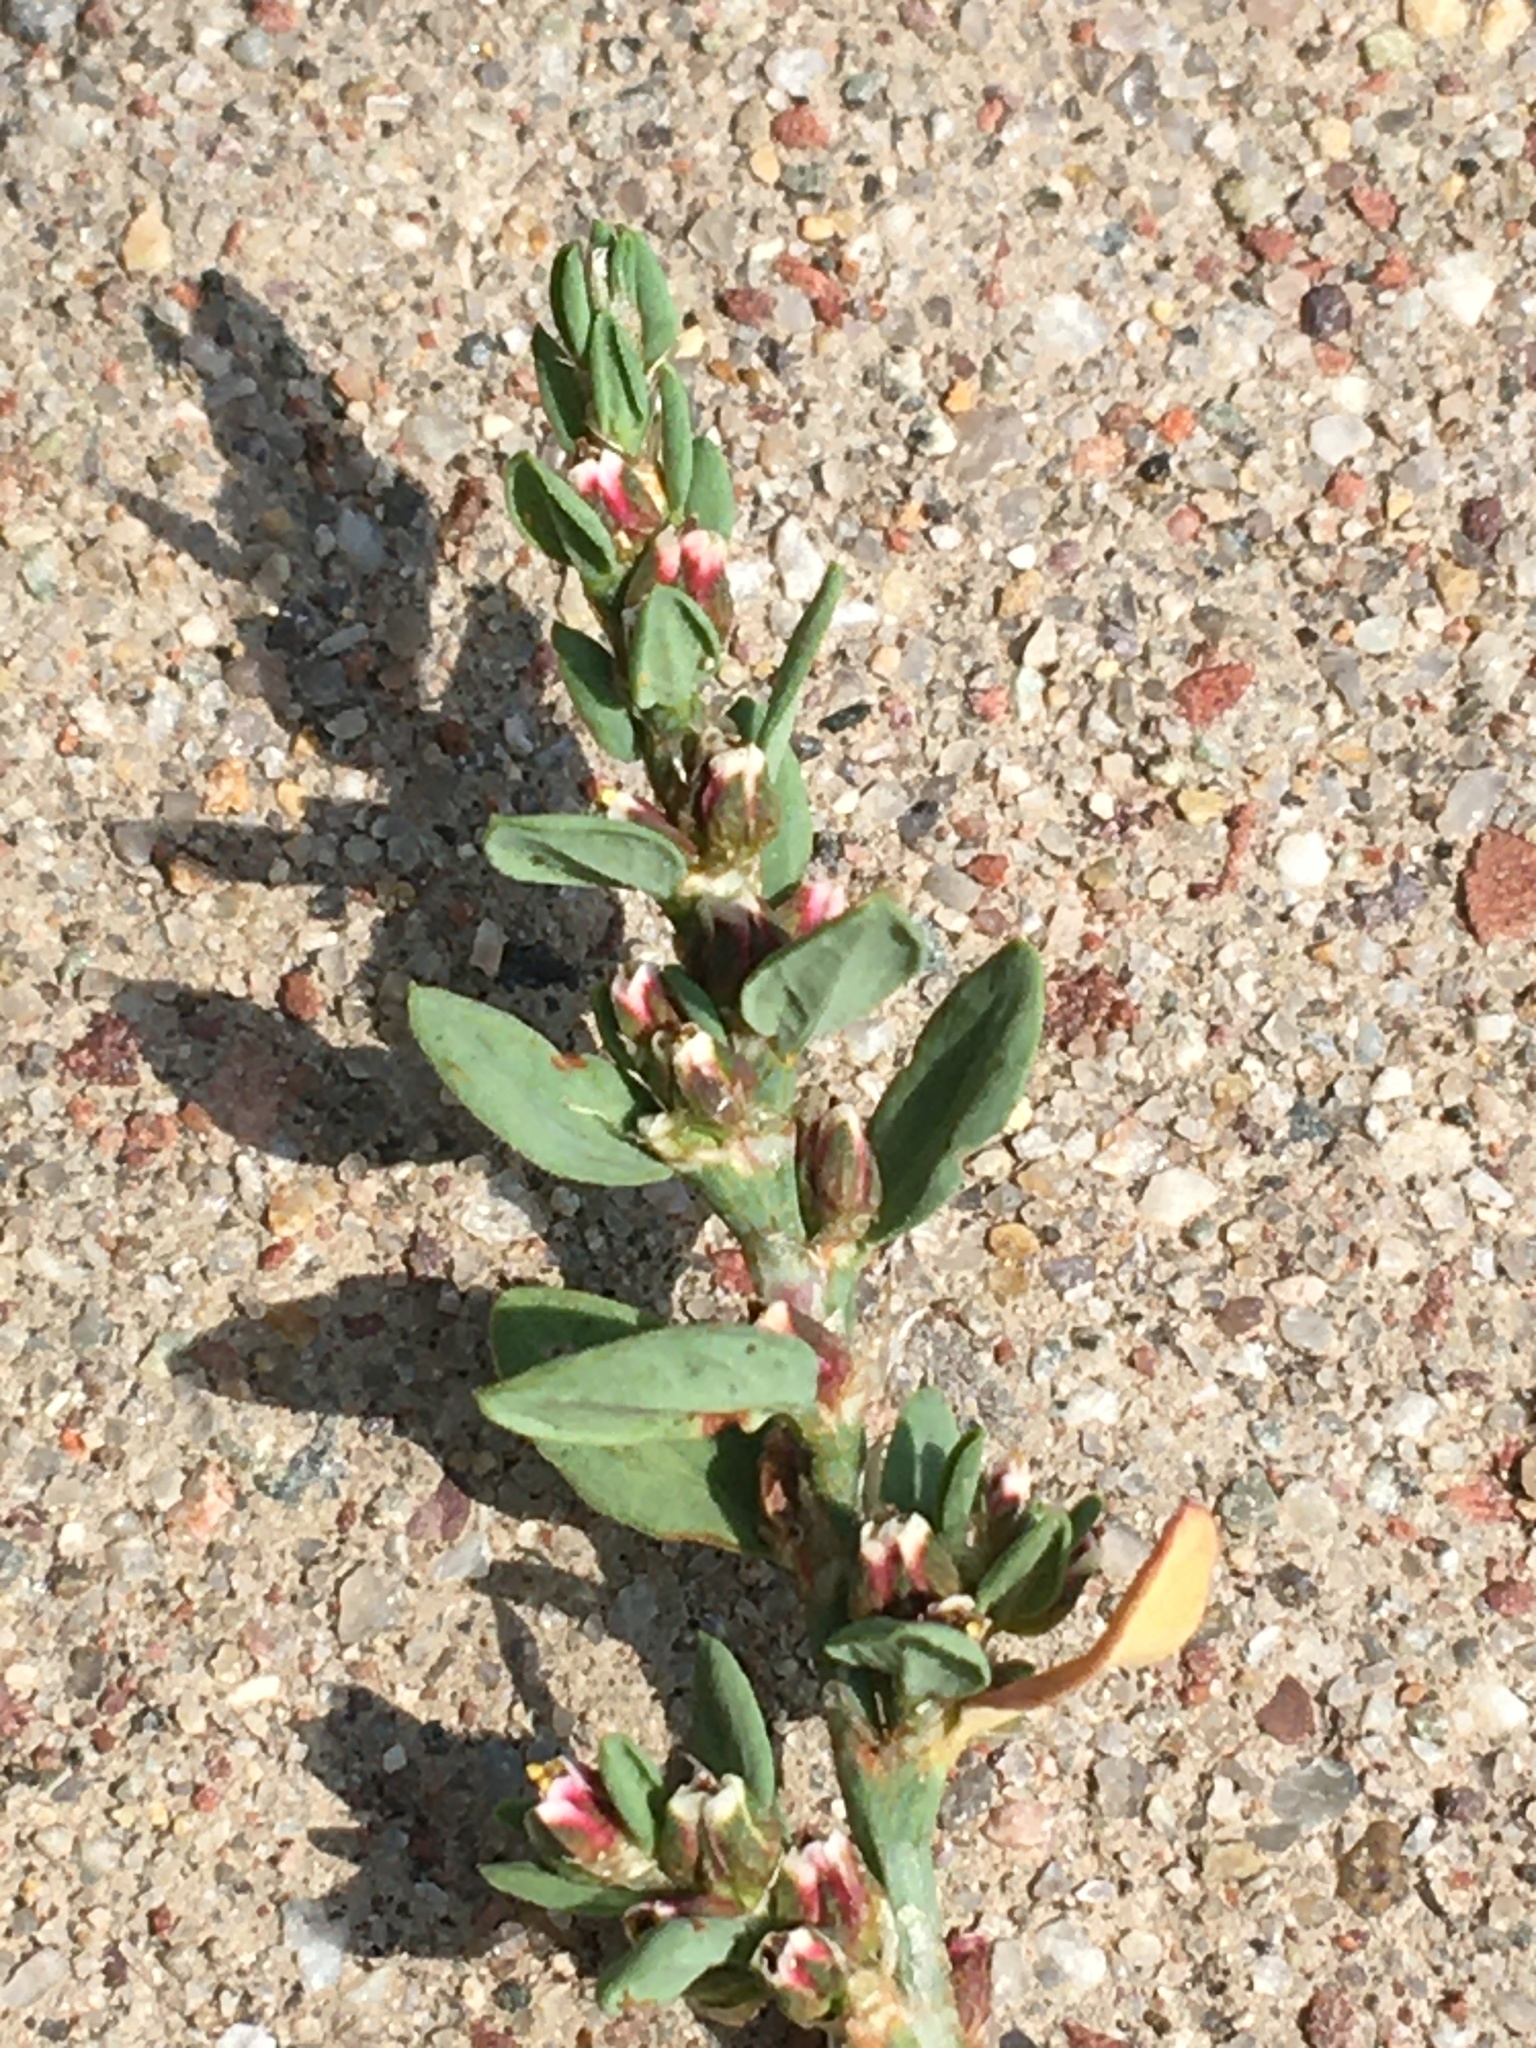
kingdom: Plantae
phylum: Tracheophyta
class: Magnoliopsida
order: Caryophyllales
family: Polygonaceae
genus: Polygonum
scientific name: Polygonum aviculare
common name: Prostrate knotweed
